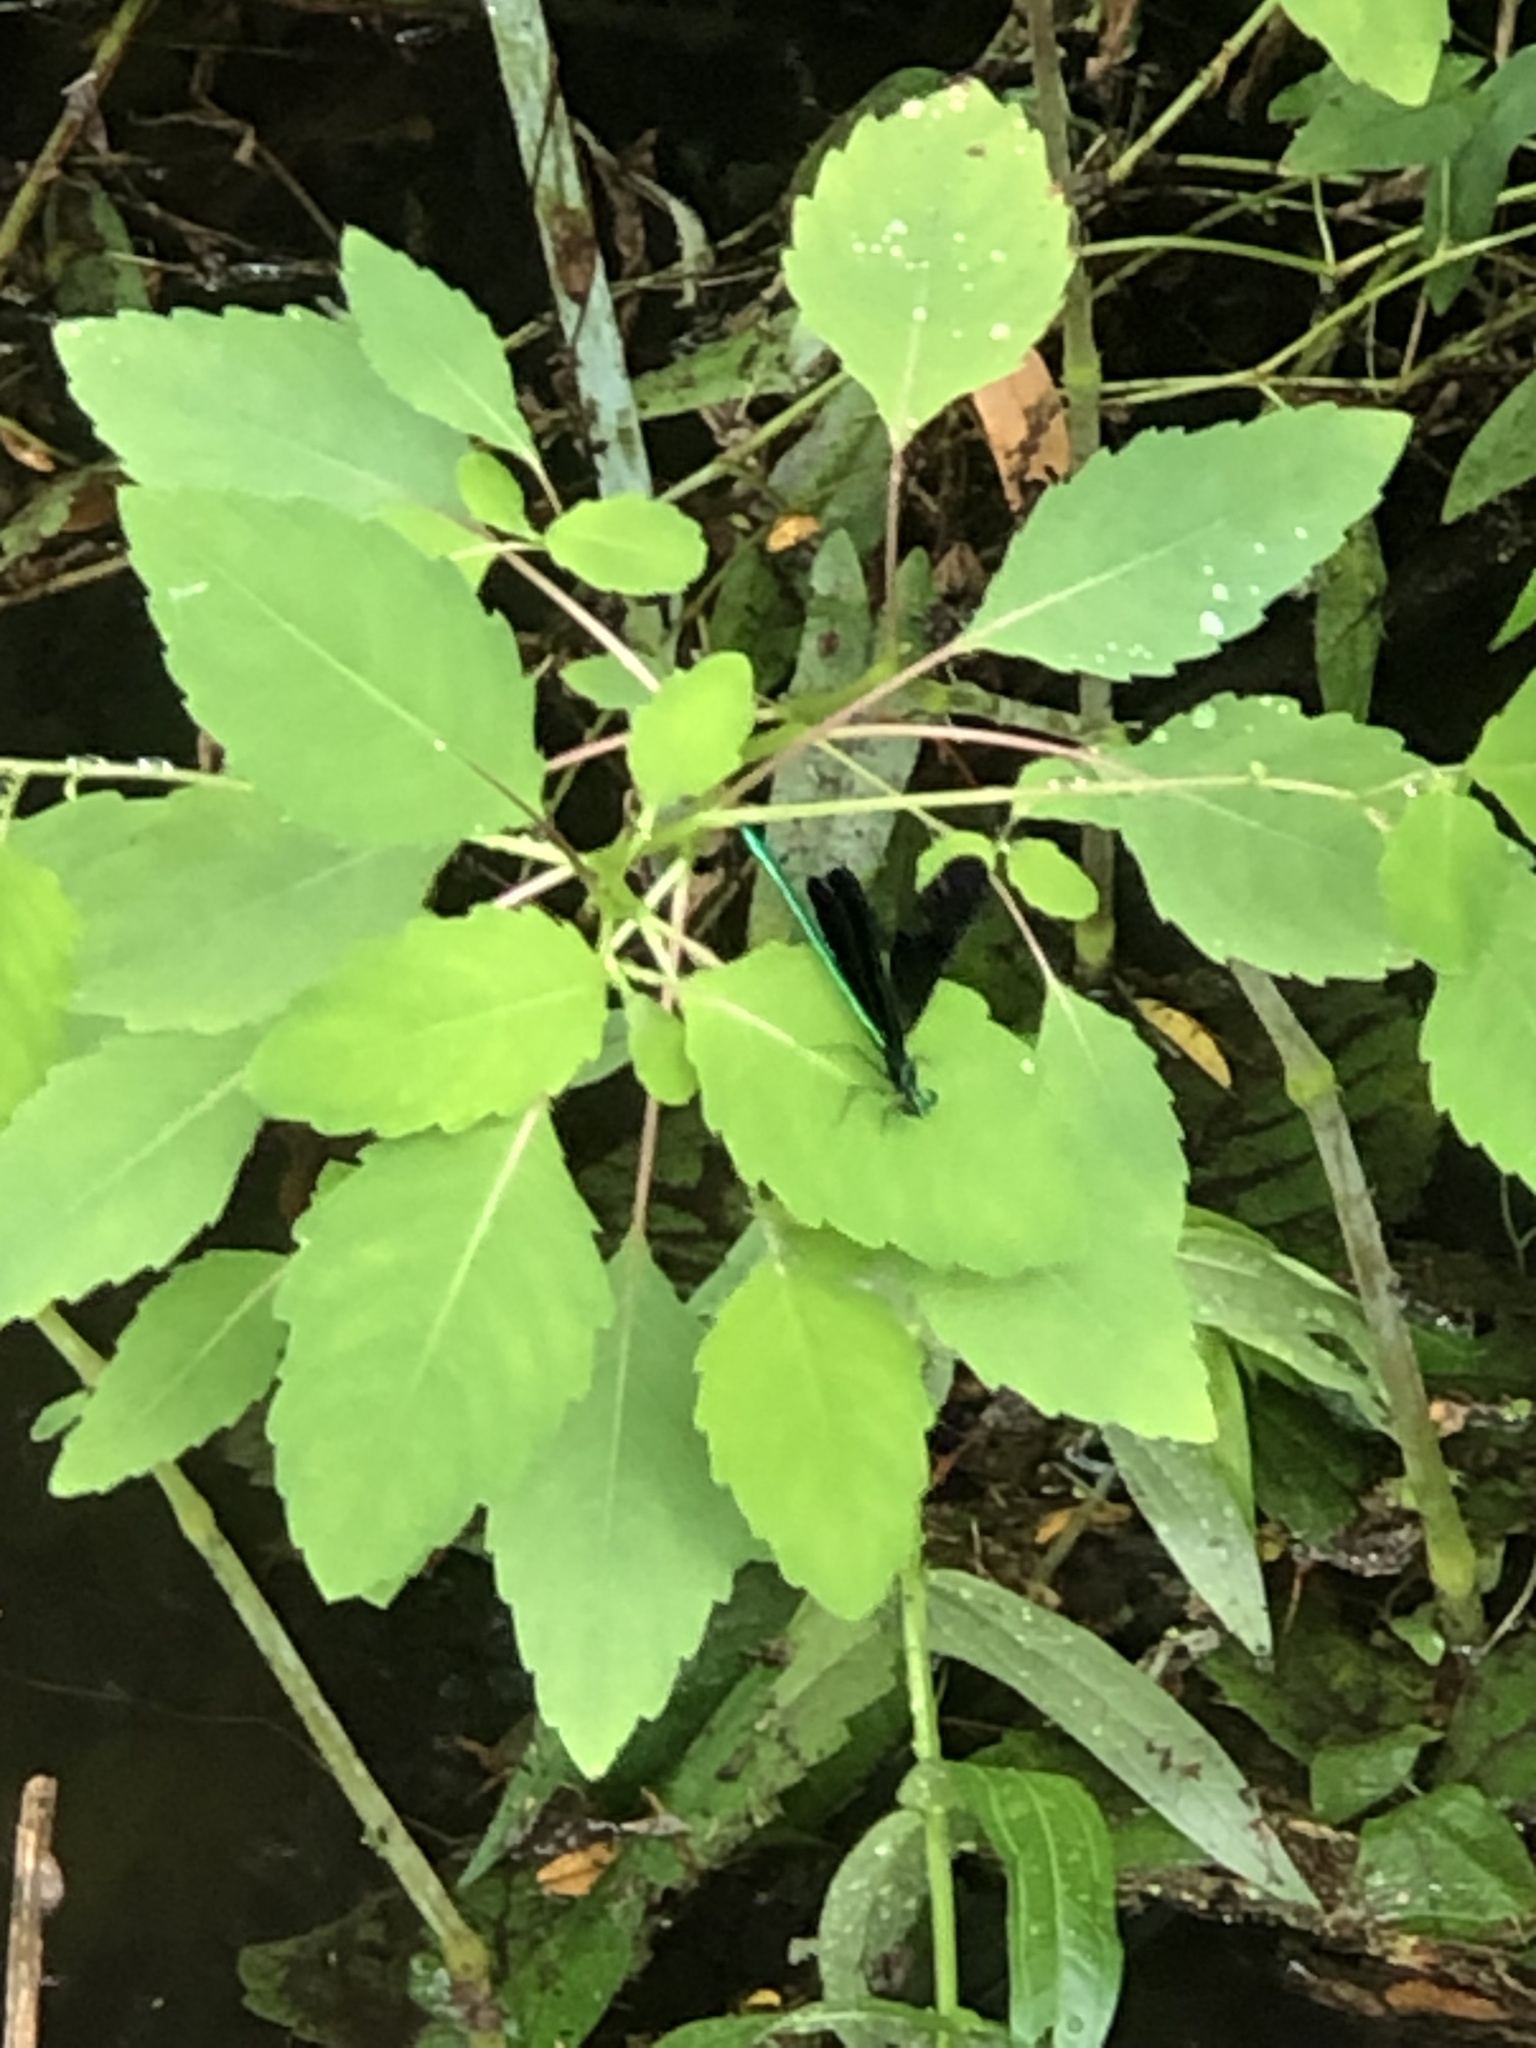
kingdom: Animalia
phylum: Arthropoda
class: Insecta
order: Odonata
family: Calopterygidae
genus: Calopteryx
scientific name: Calopteryx maculata
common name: Ebony jewelwing
